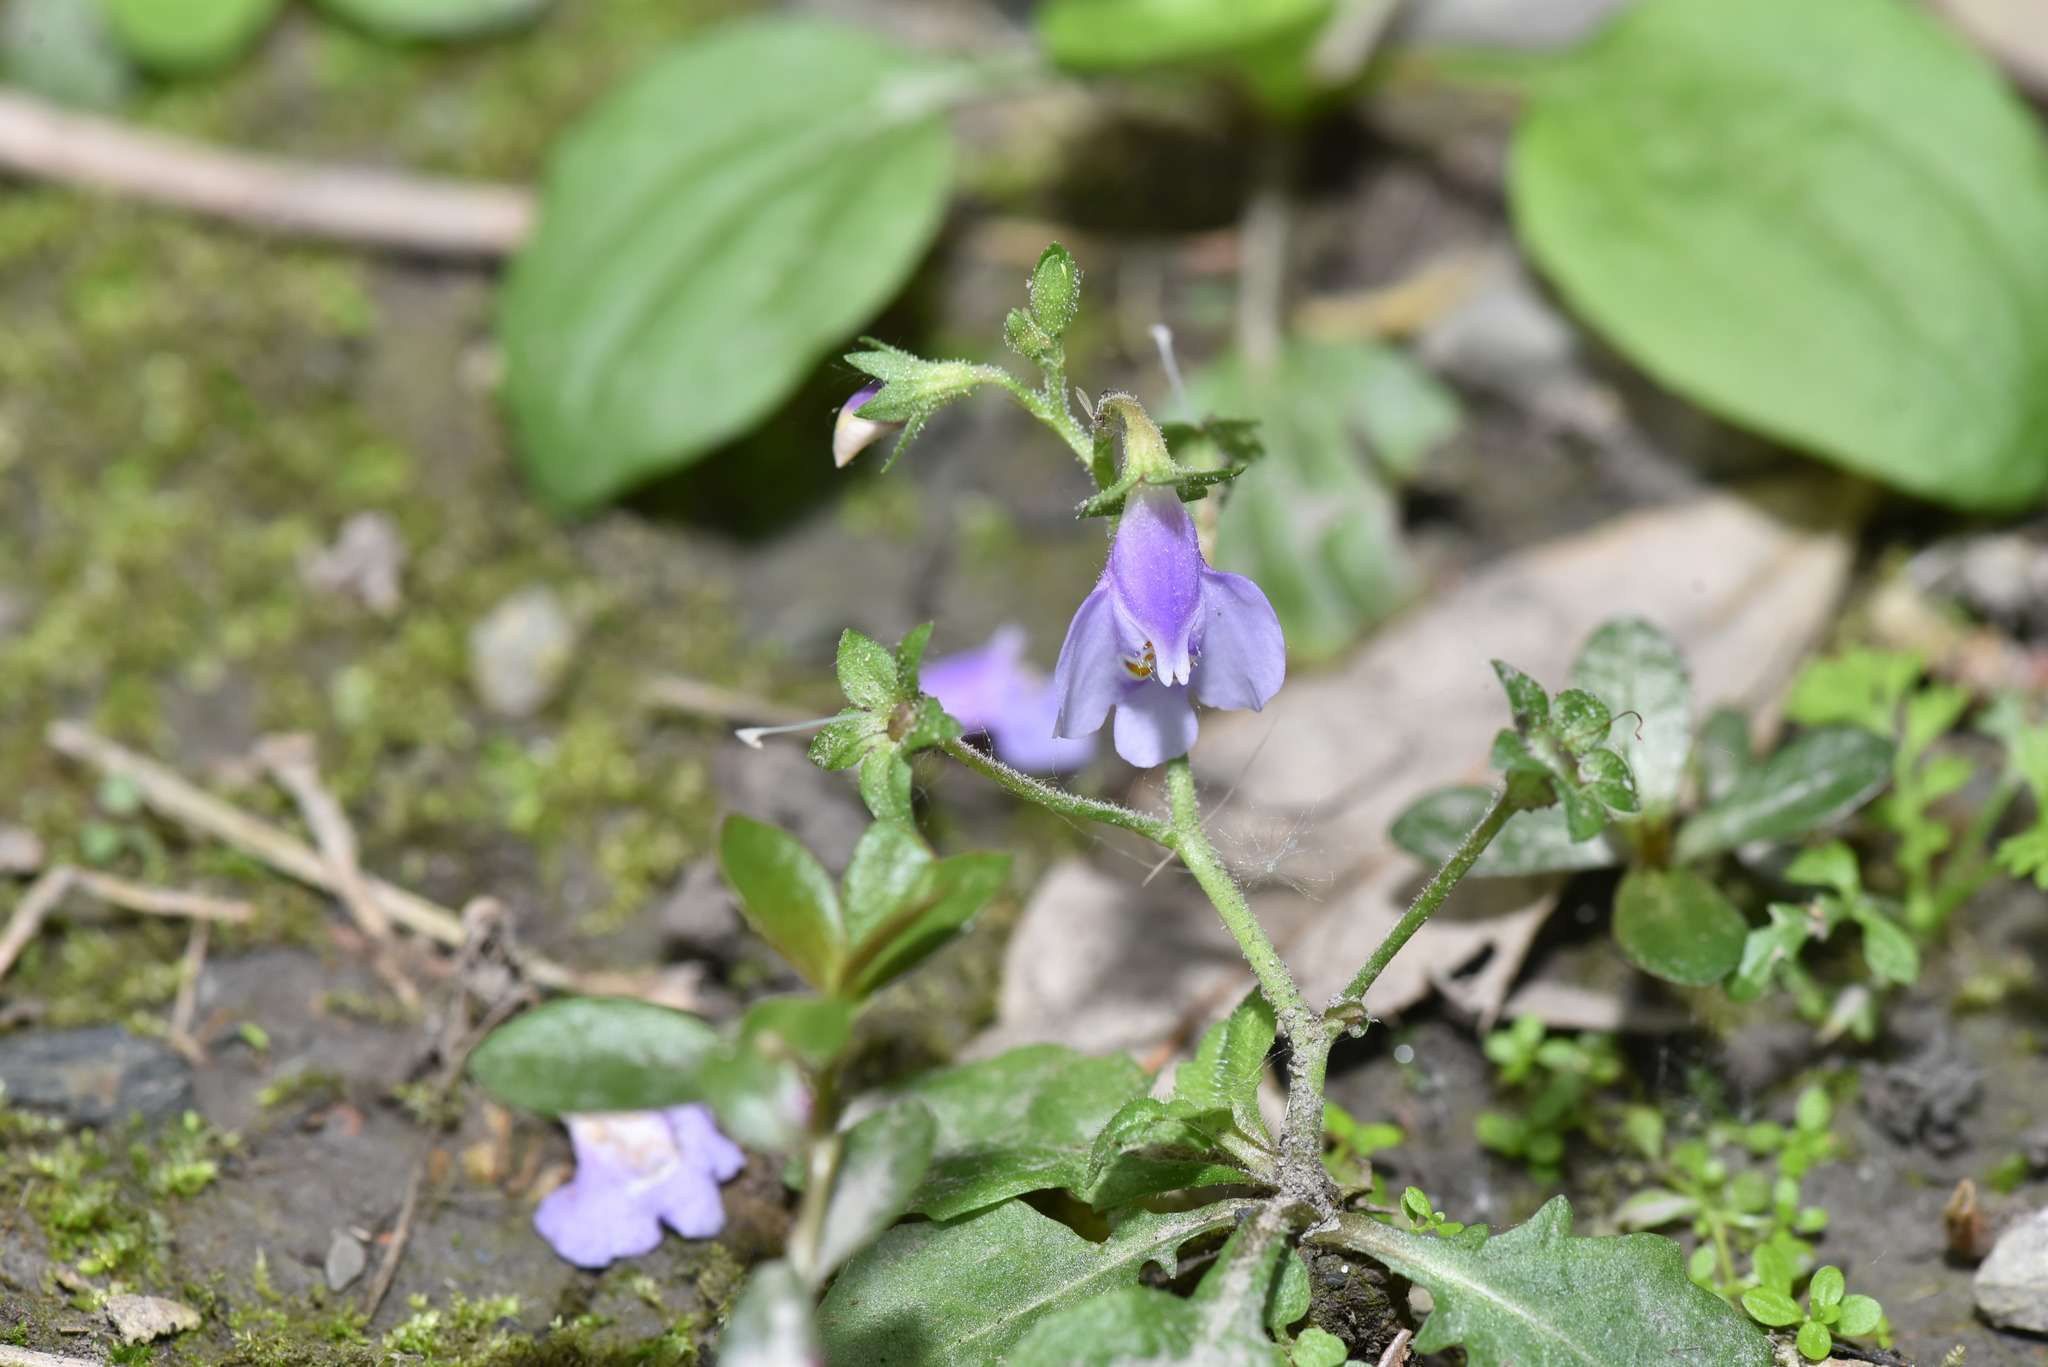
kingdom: Plantae
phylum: Tracheophyta
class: Magnoliopsida
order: Lamiales
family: Mazaceae
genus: Mazus
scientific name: Mazus fauriei
